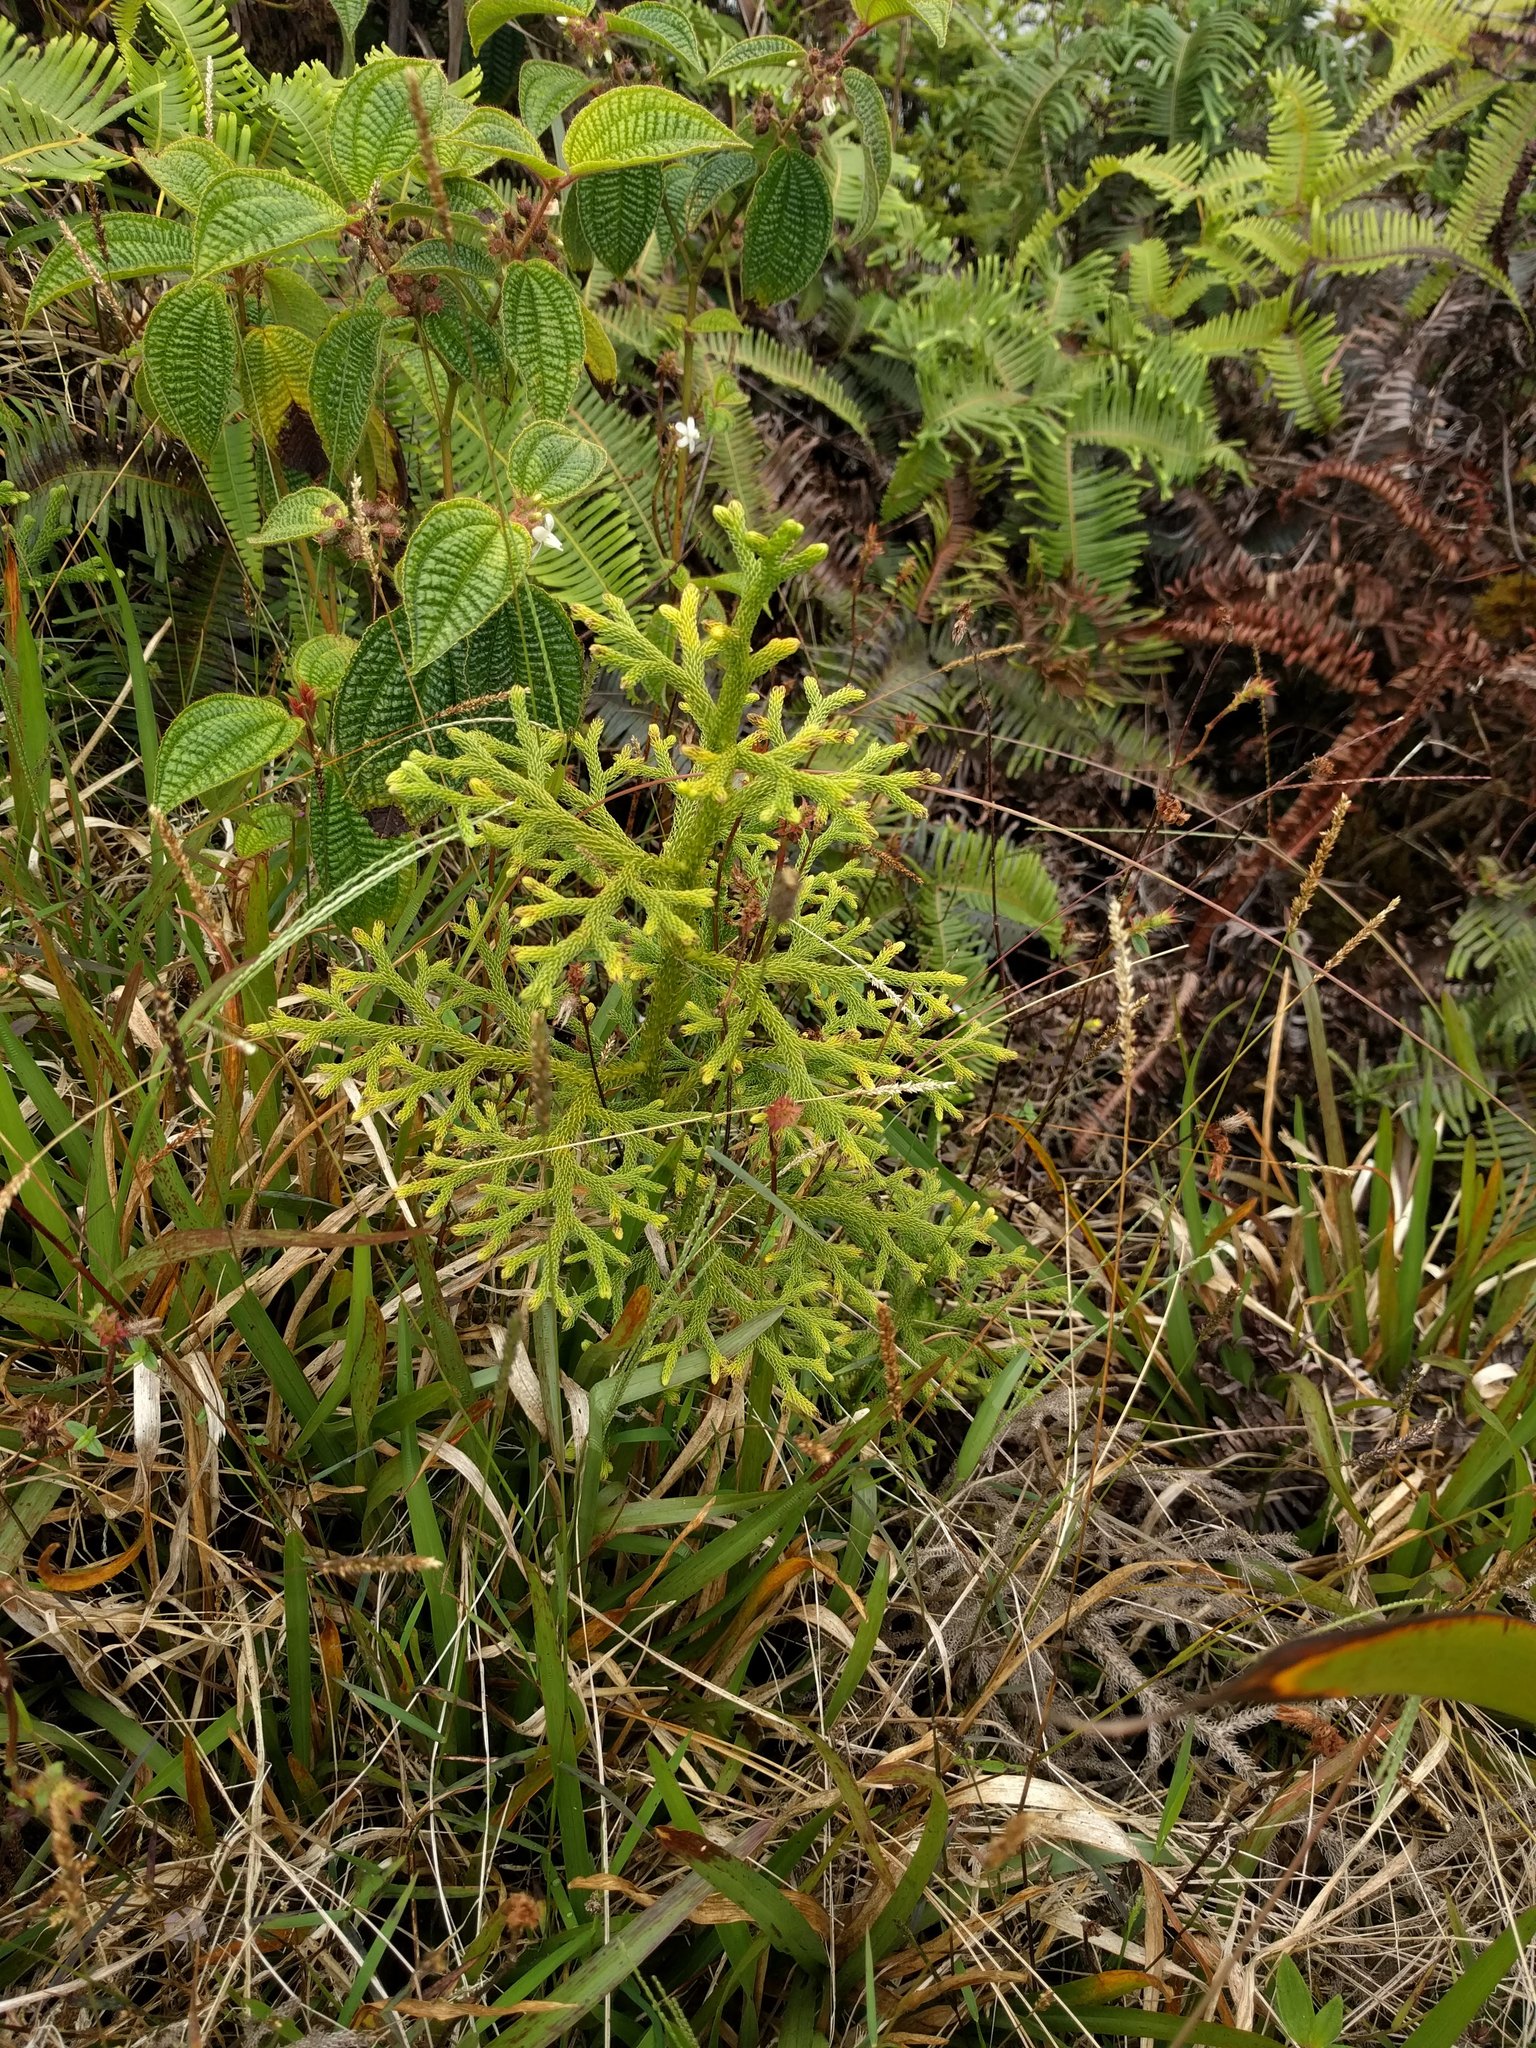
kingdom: Plantae
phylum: Tracheophyta
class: Lycopodiopsida
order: Lycopodiales
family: Lycopodiaceae
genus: Palhinhaea
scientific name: Palhinhaea cernua
